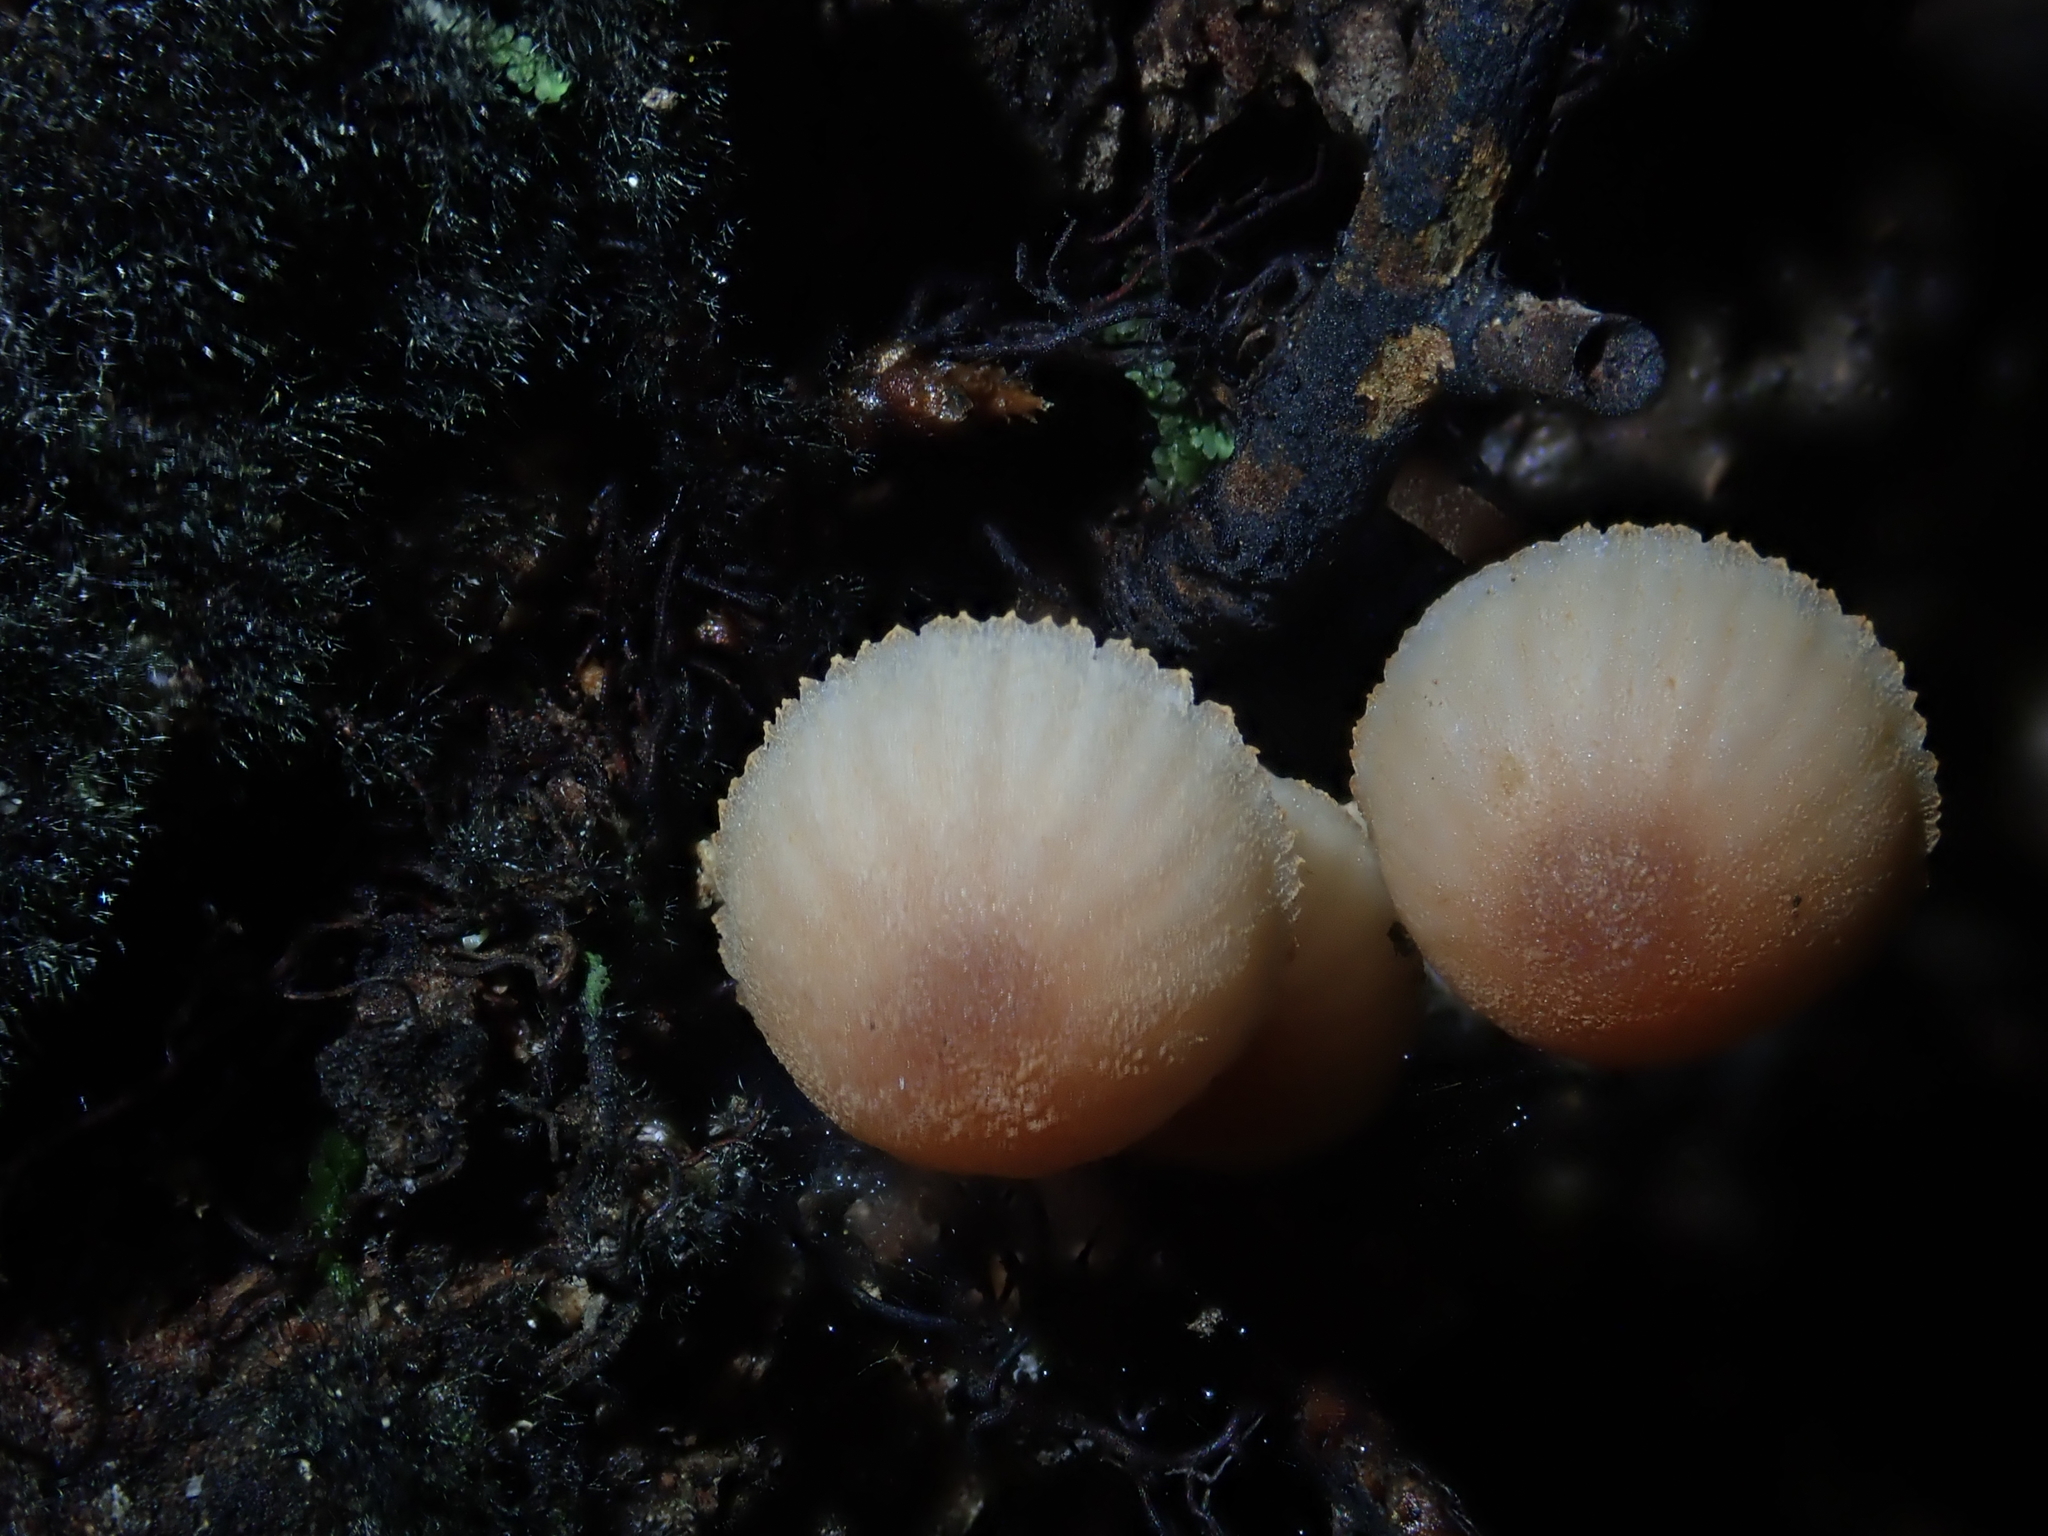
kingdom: Fungi
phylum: Basidiomycota
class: Agaricomycetes
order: Agaricales
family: Mycenaceae
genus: Mycena
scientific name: Mycena parsonsii
